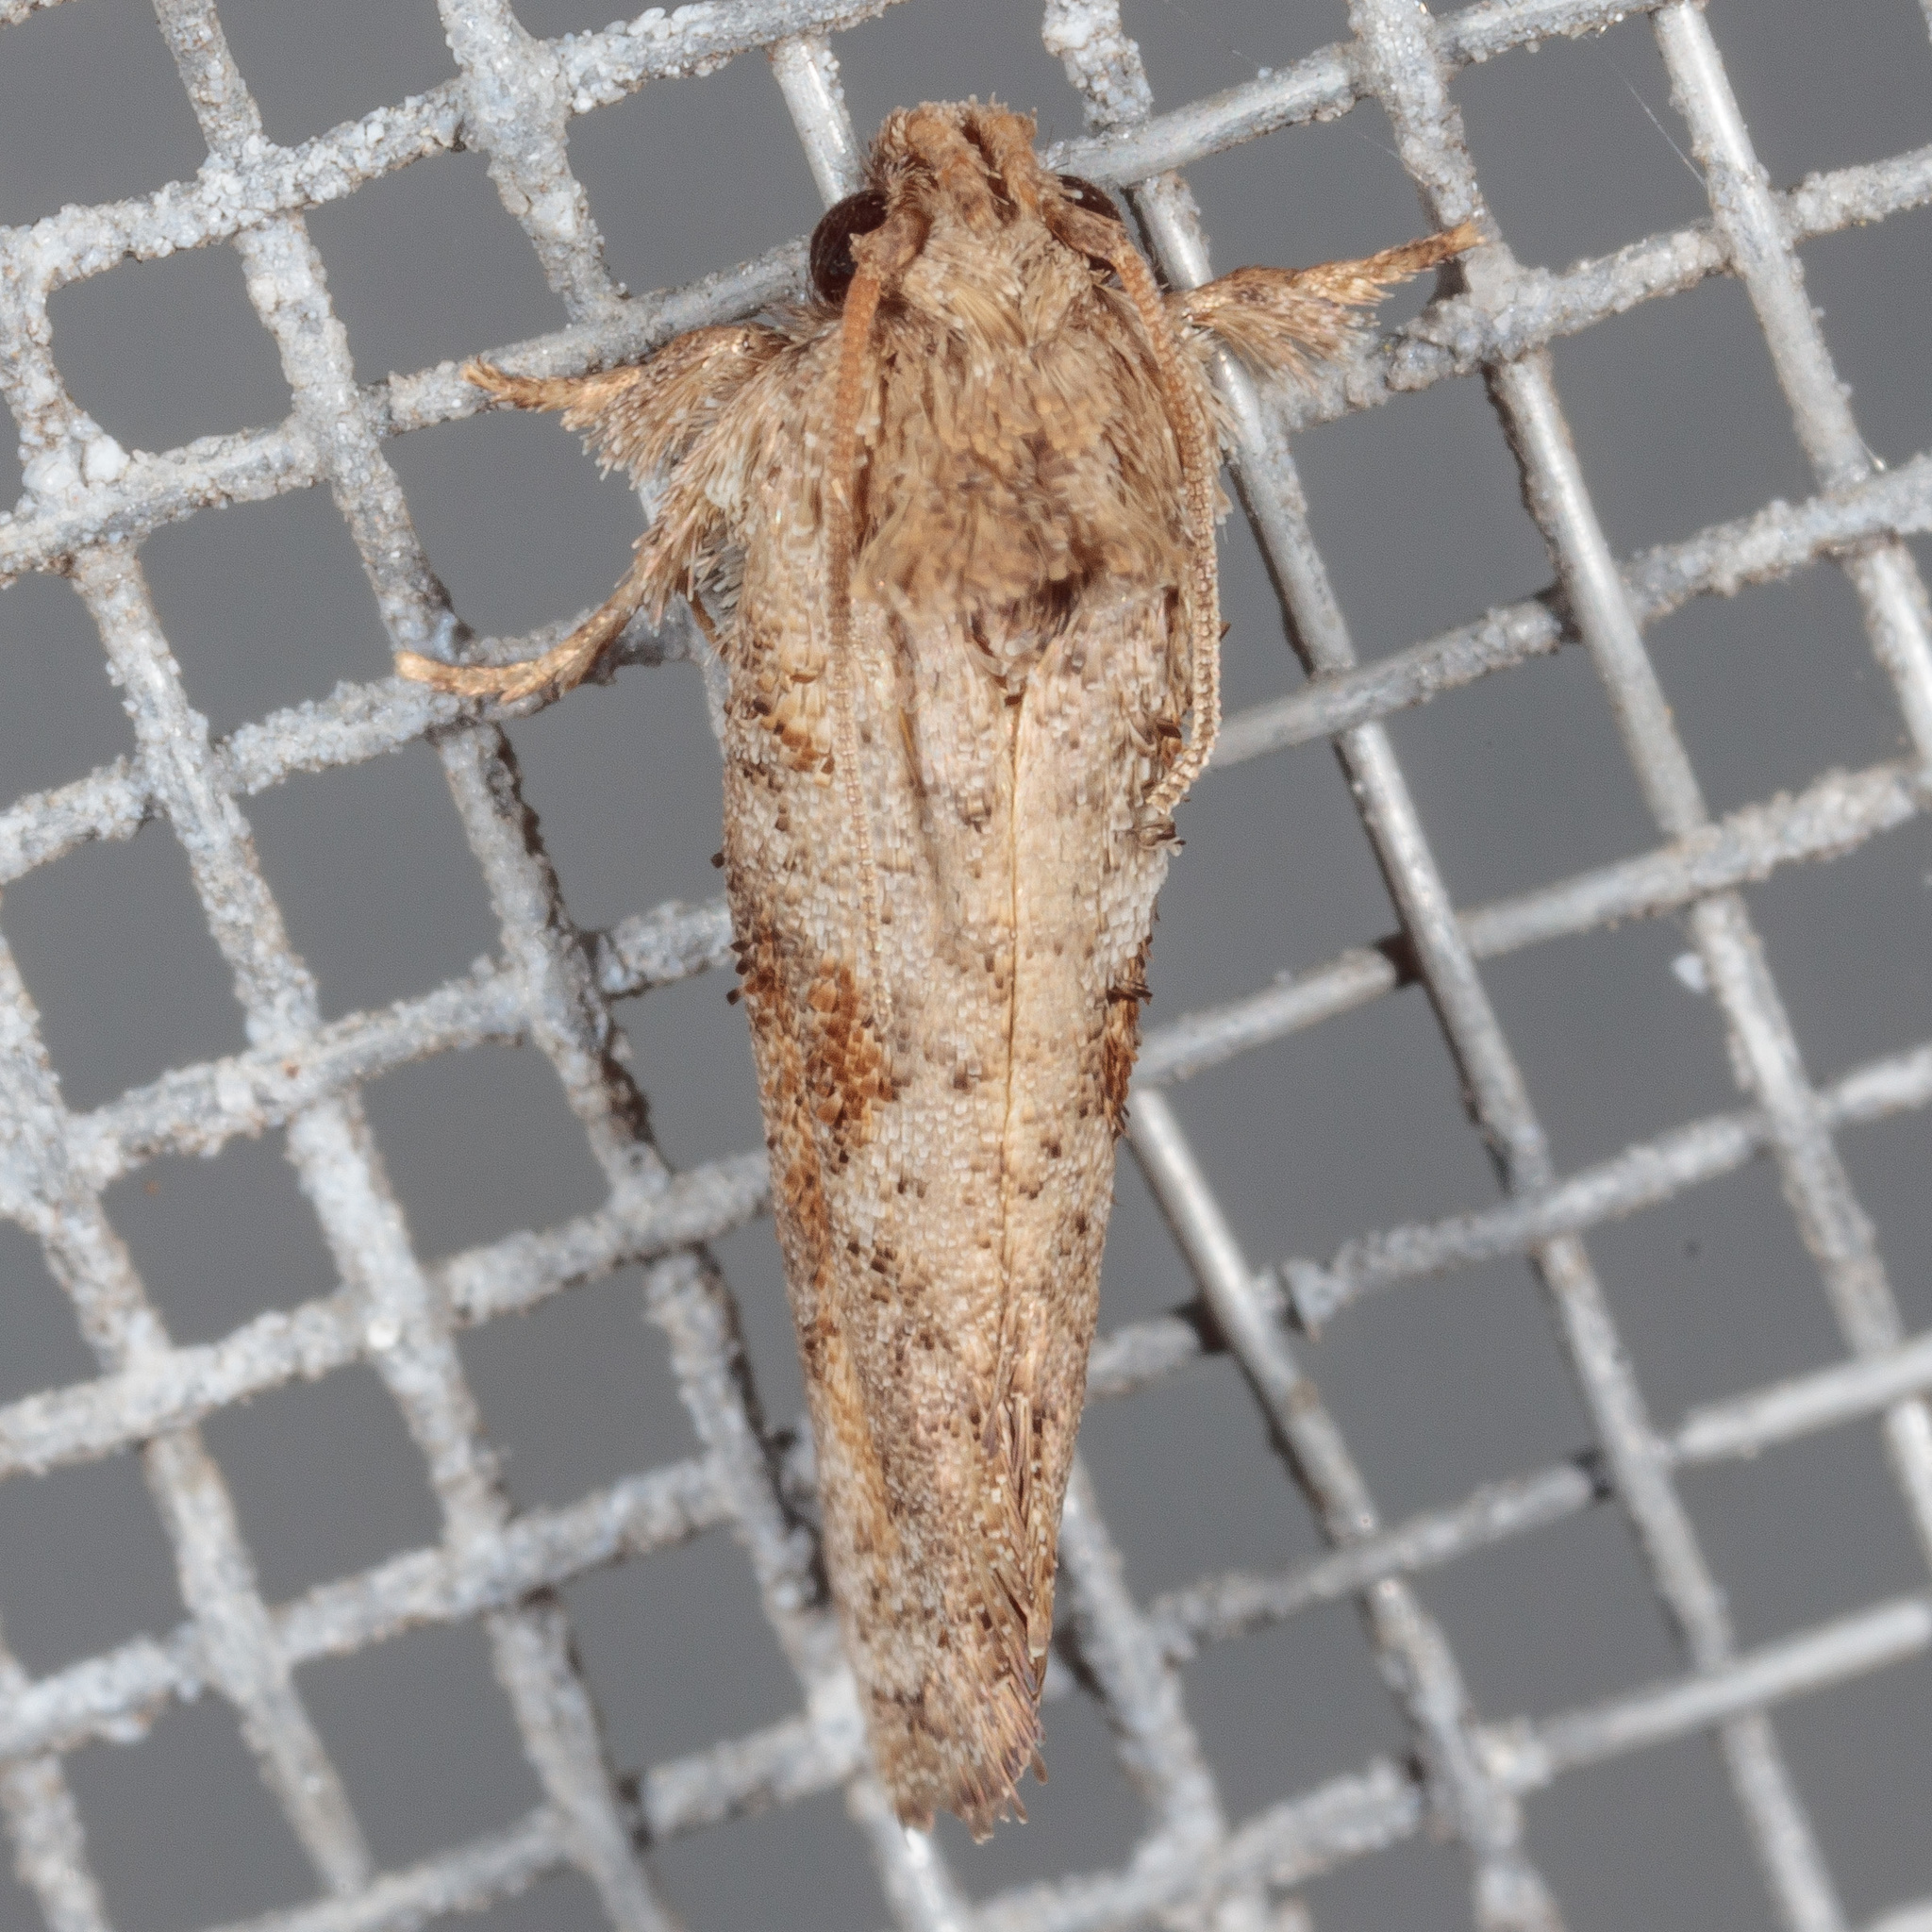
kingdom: Animalia
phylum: Arthropoda
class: Insecta
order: Lepidoptera
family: Tineidae
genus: Acrolophus
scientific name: Acrolophus piger
